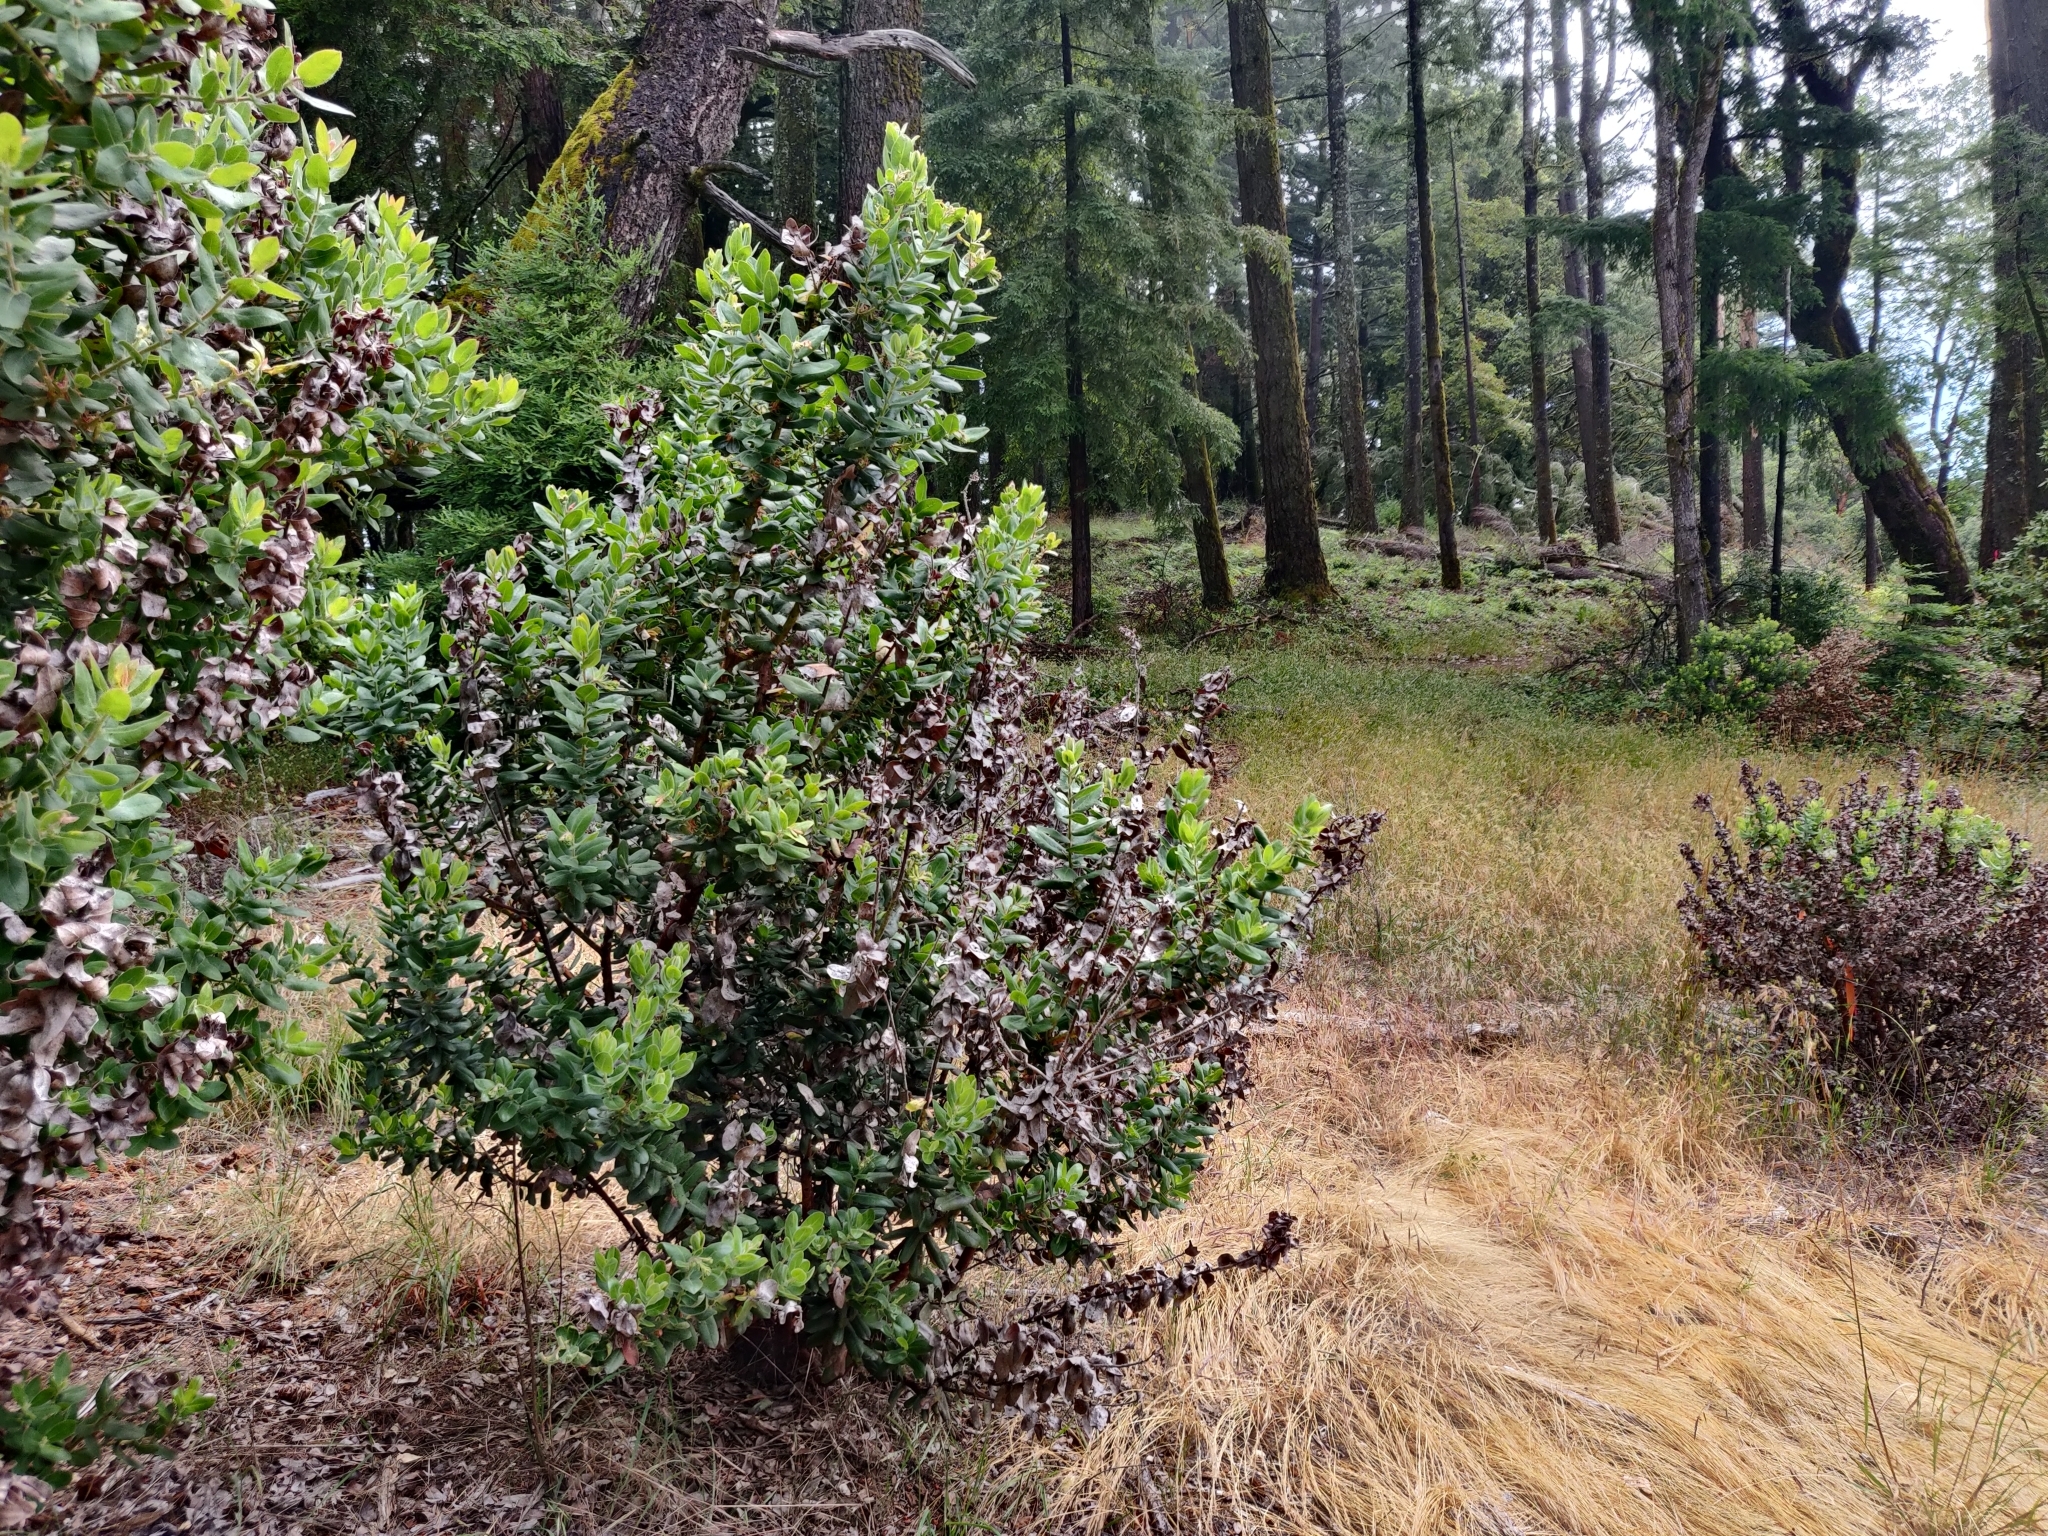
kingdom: Plantae
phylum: Tracheophyta
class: Magnoliopsida
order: Ericales
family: Ericaceae
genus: Arctostaphylos
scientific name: Arctostaphylos regismontana
